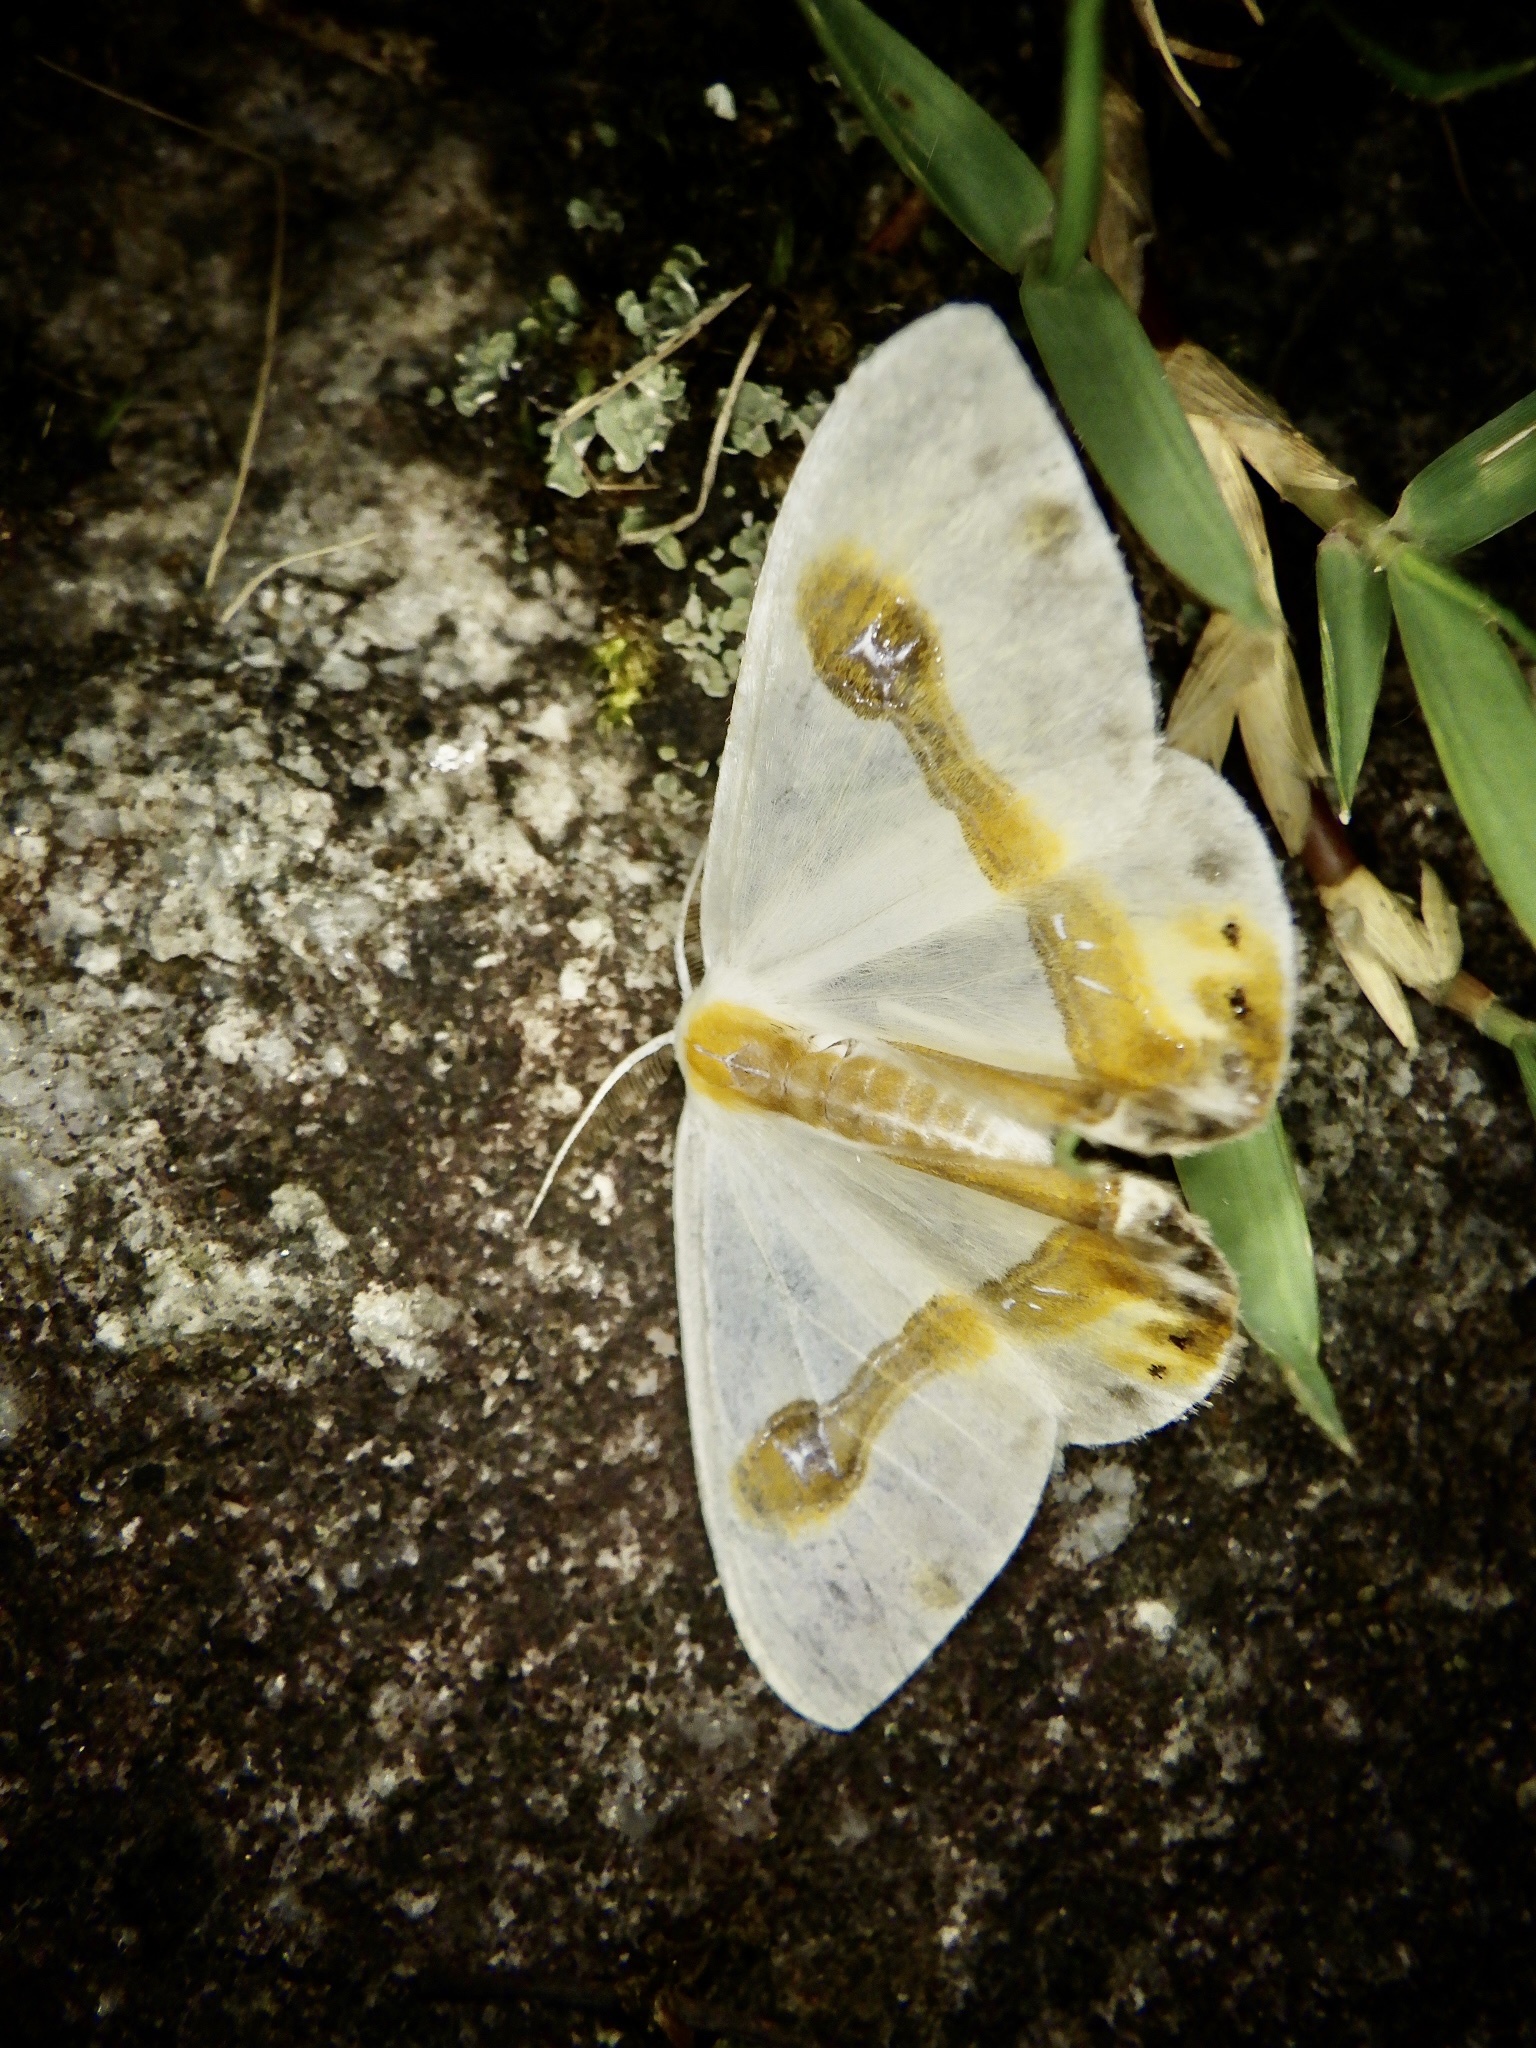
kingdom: Animalia
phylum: Arthropoda
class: Insecta
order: Lepidoptera
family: Drepanidae
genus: Macrocilix
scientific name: Macrocilix mysticata
